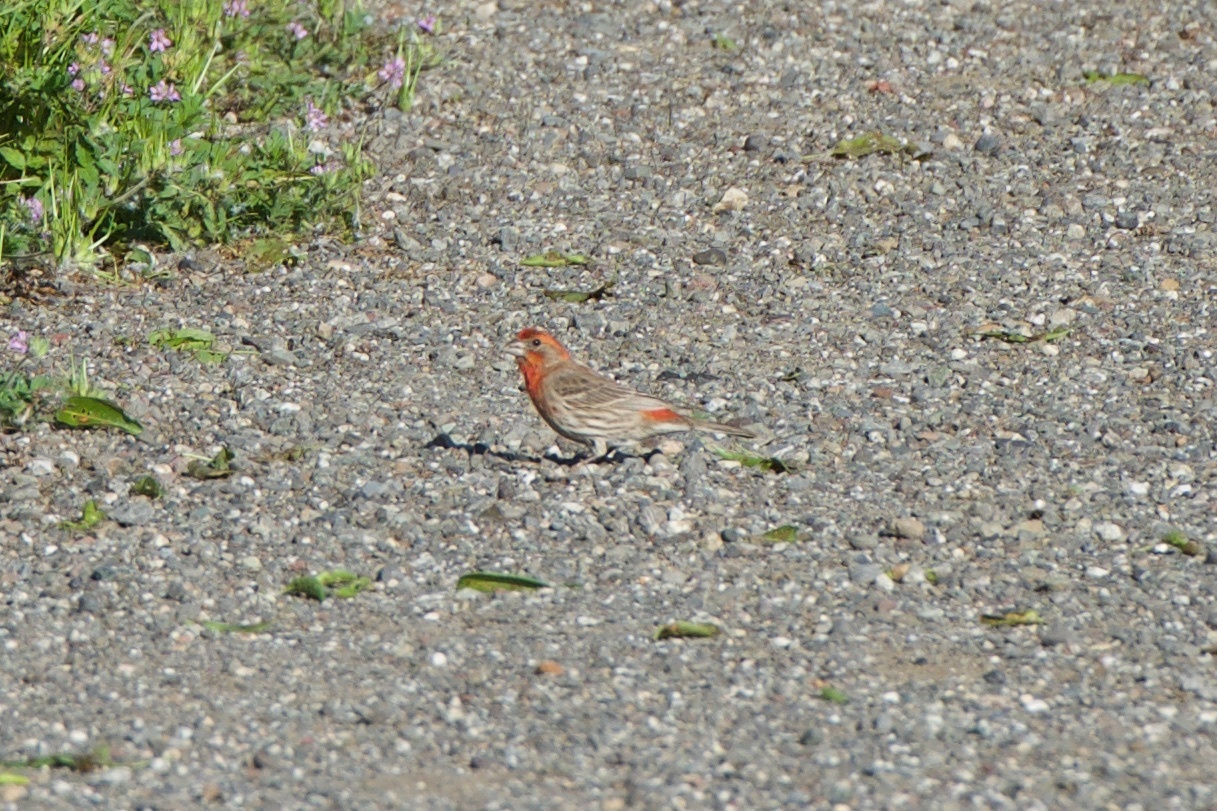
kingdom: Animalia
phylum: Chordata
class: Aves
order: Passeriformes
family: Fringillidae
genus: Haemorhous
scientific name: Haemorhous mexicanus
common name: House finch
